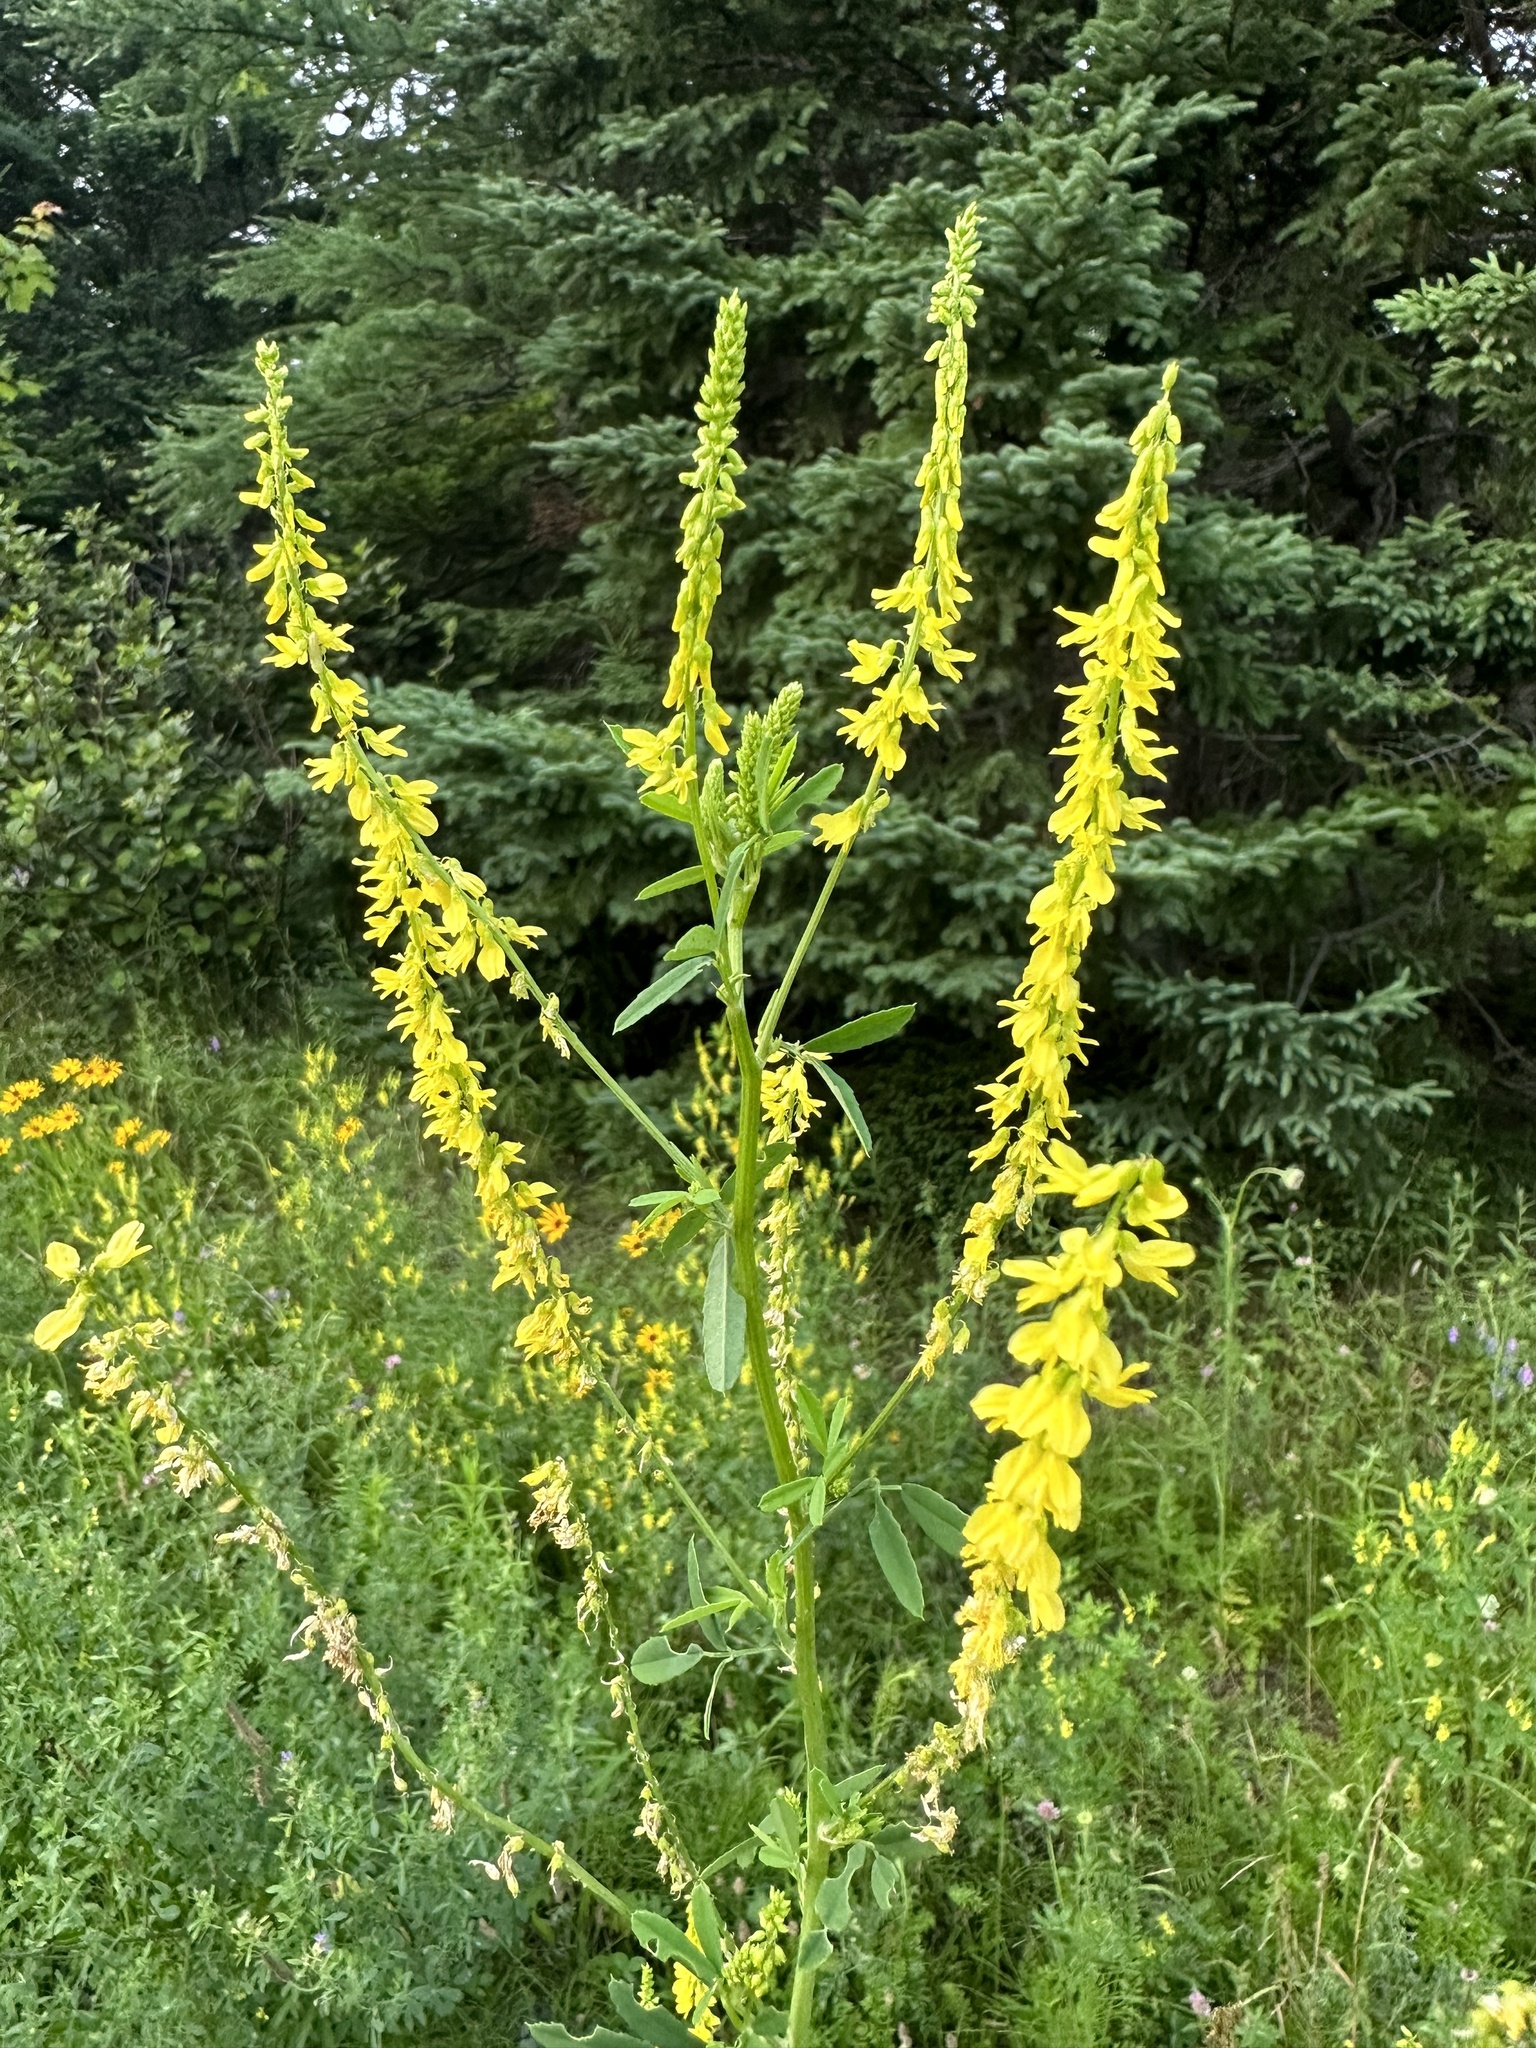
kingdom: Plantae
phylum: Tracheophyta
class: Magnoliopsida
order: Fabales
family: Fabaceae
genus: Melilotus
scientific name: Melilotus officinalis
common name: Sweetclover
